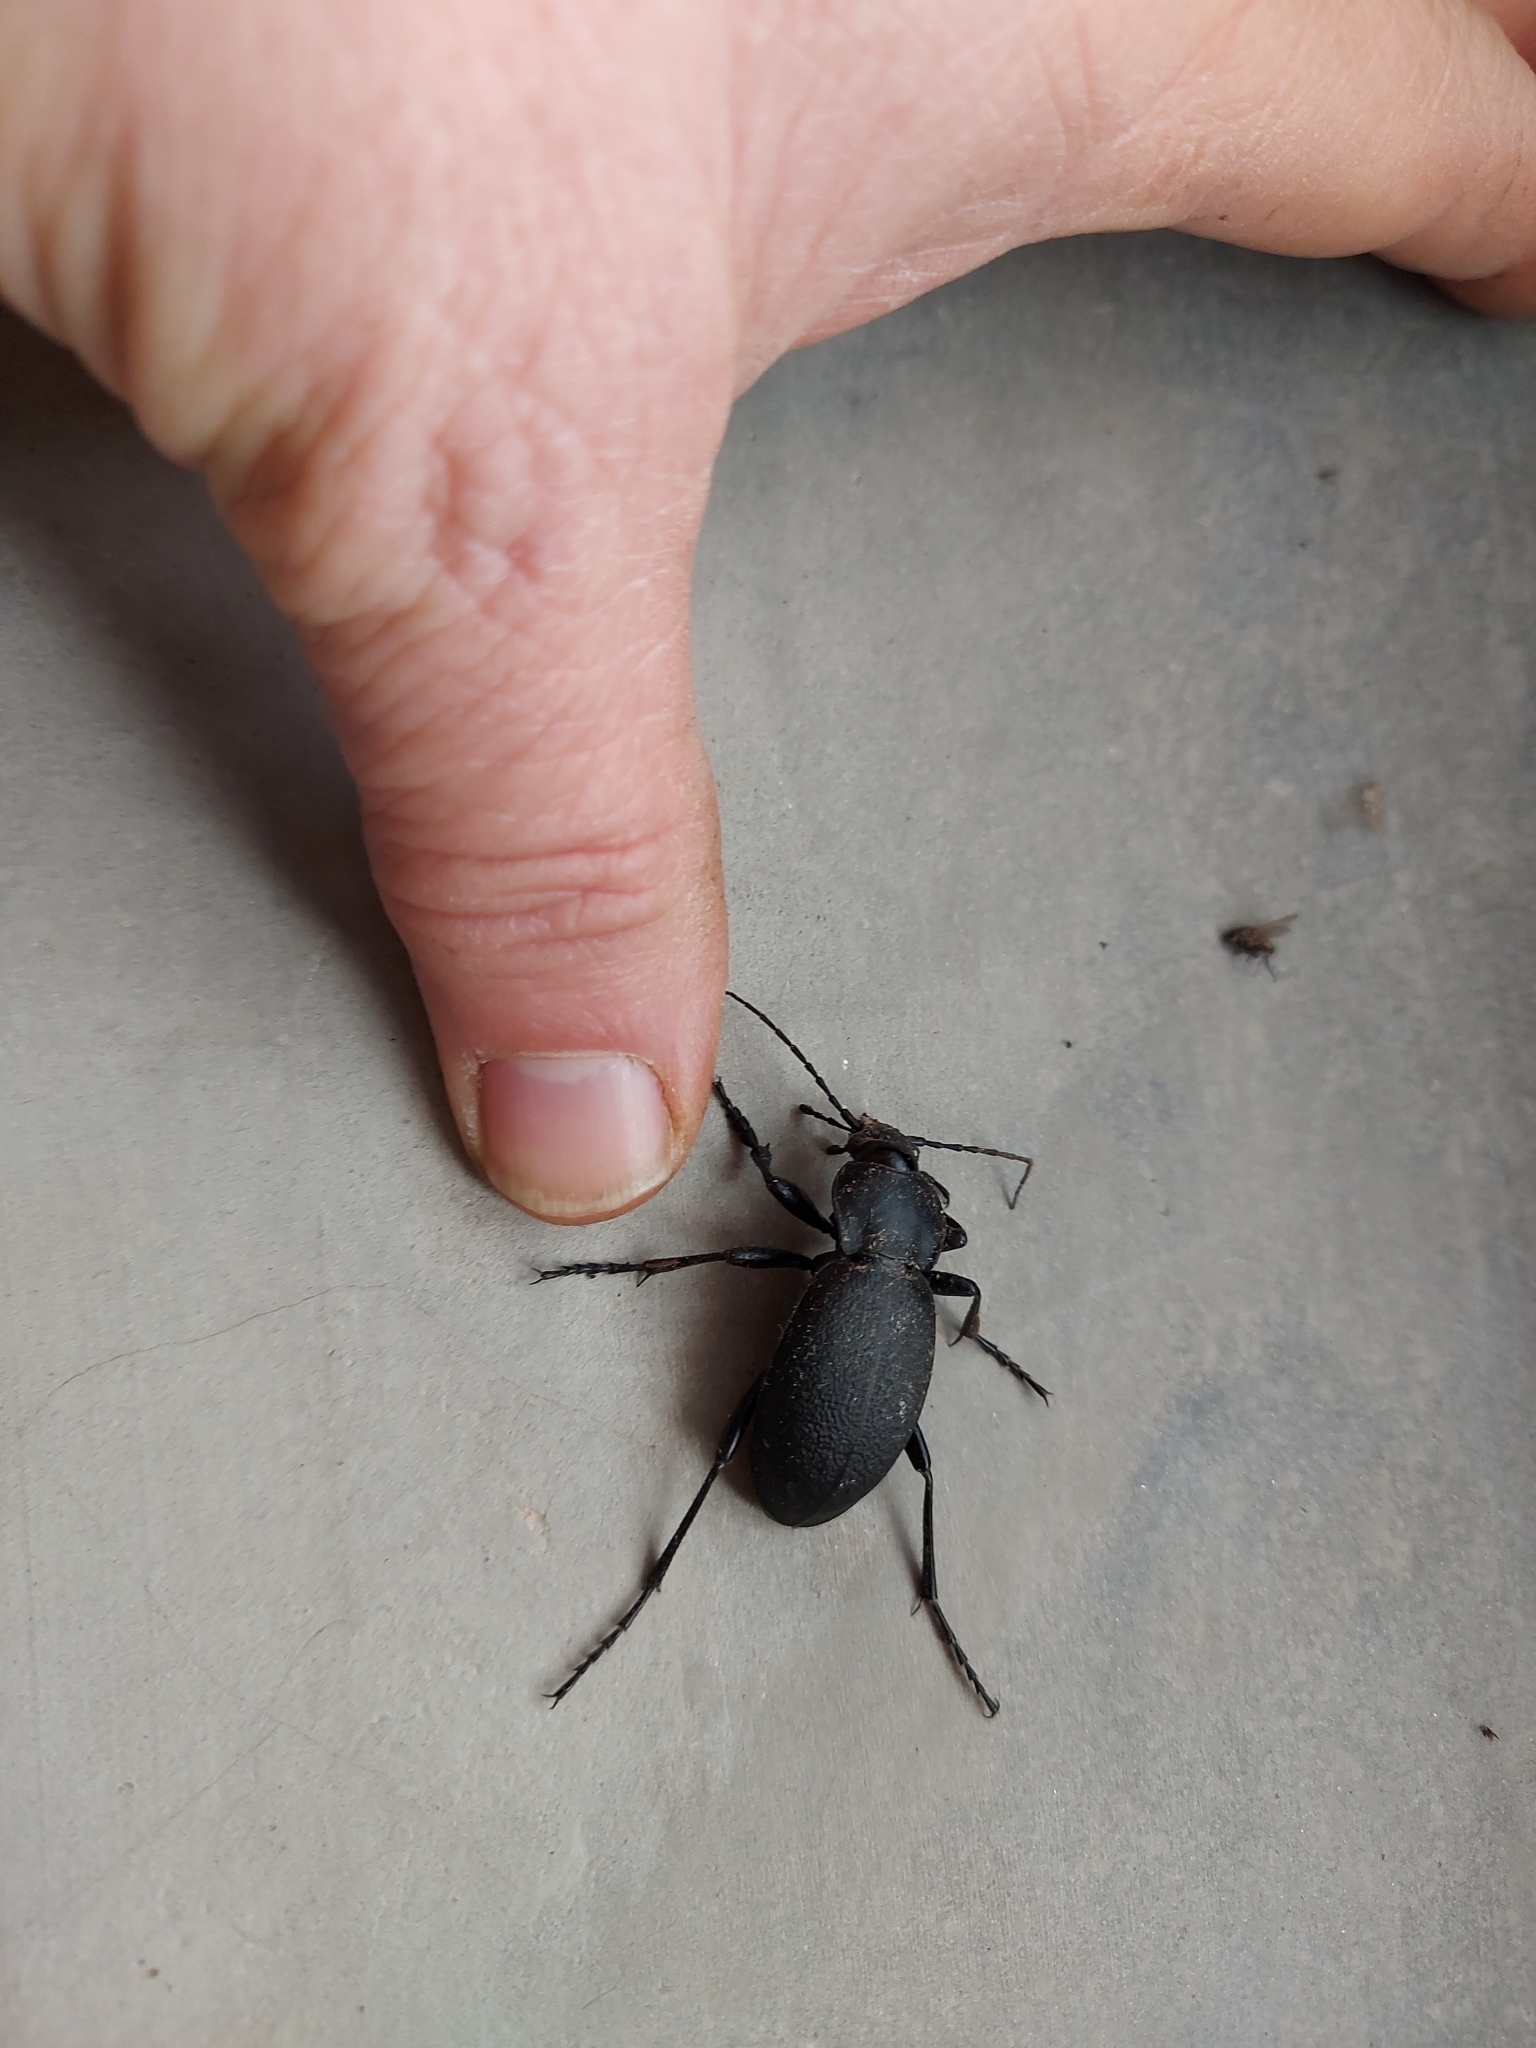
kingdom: Animalia
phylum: Arthropoda
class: Insecta
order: Coleoptera
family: Carabidae
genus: Carabus
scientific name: Carabus coriaceus
